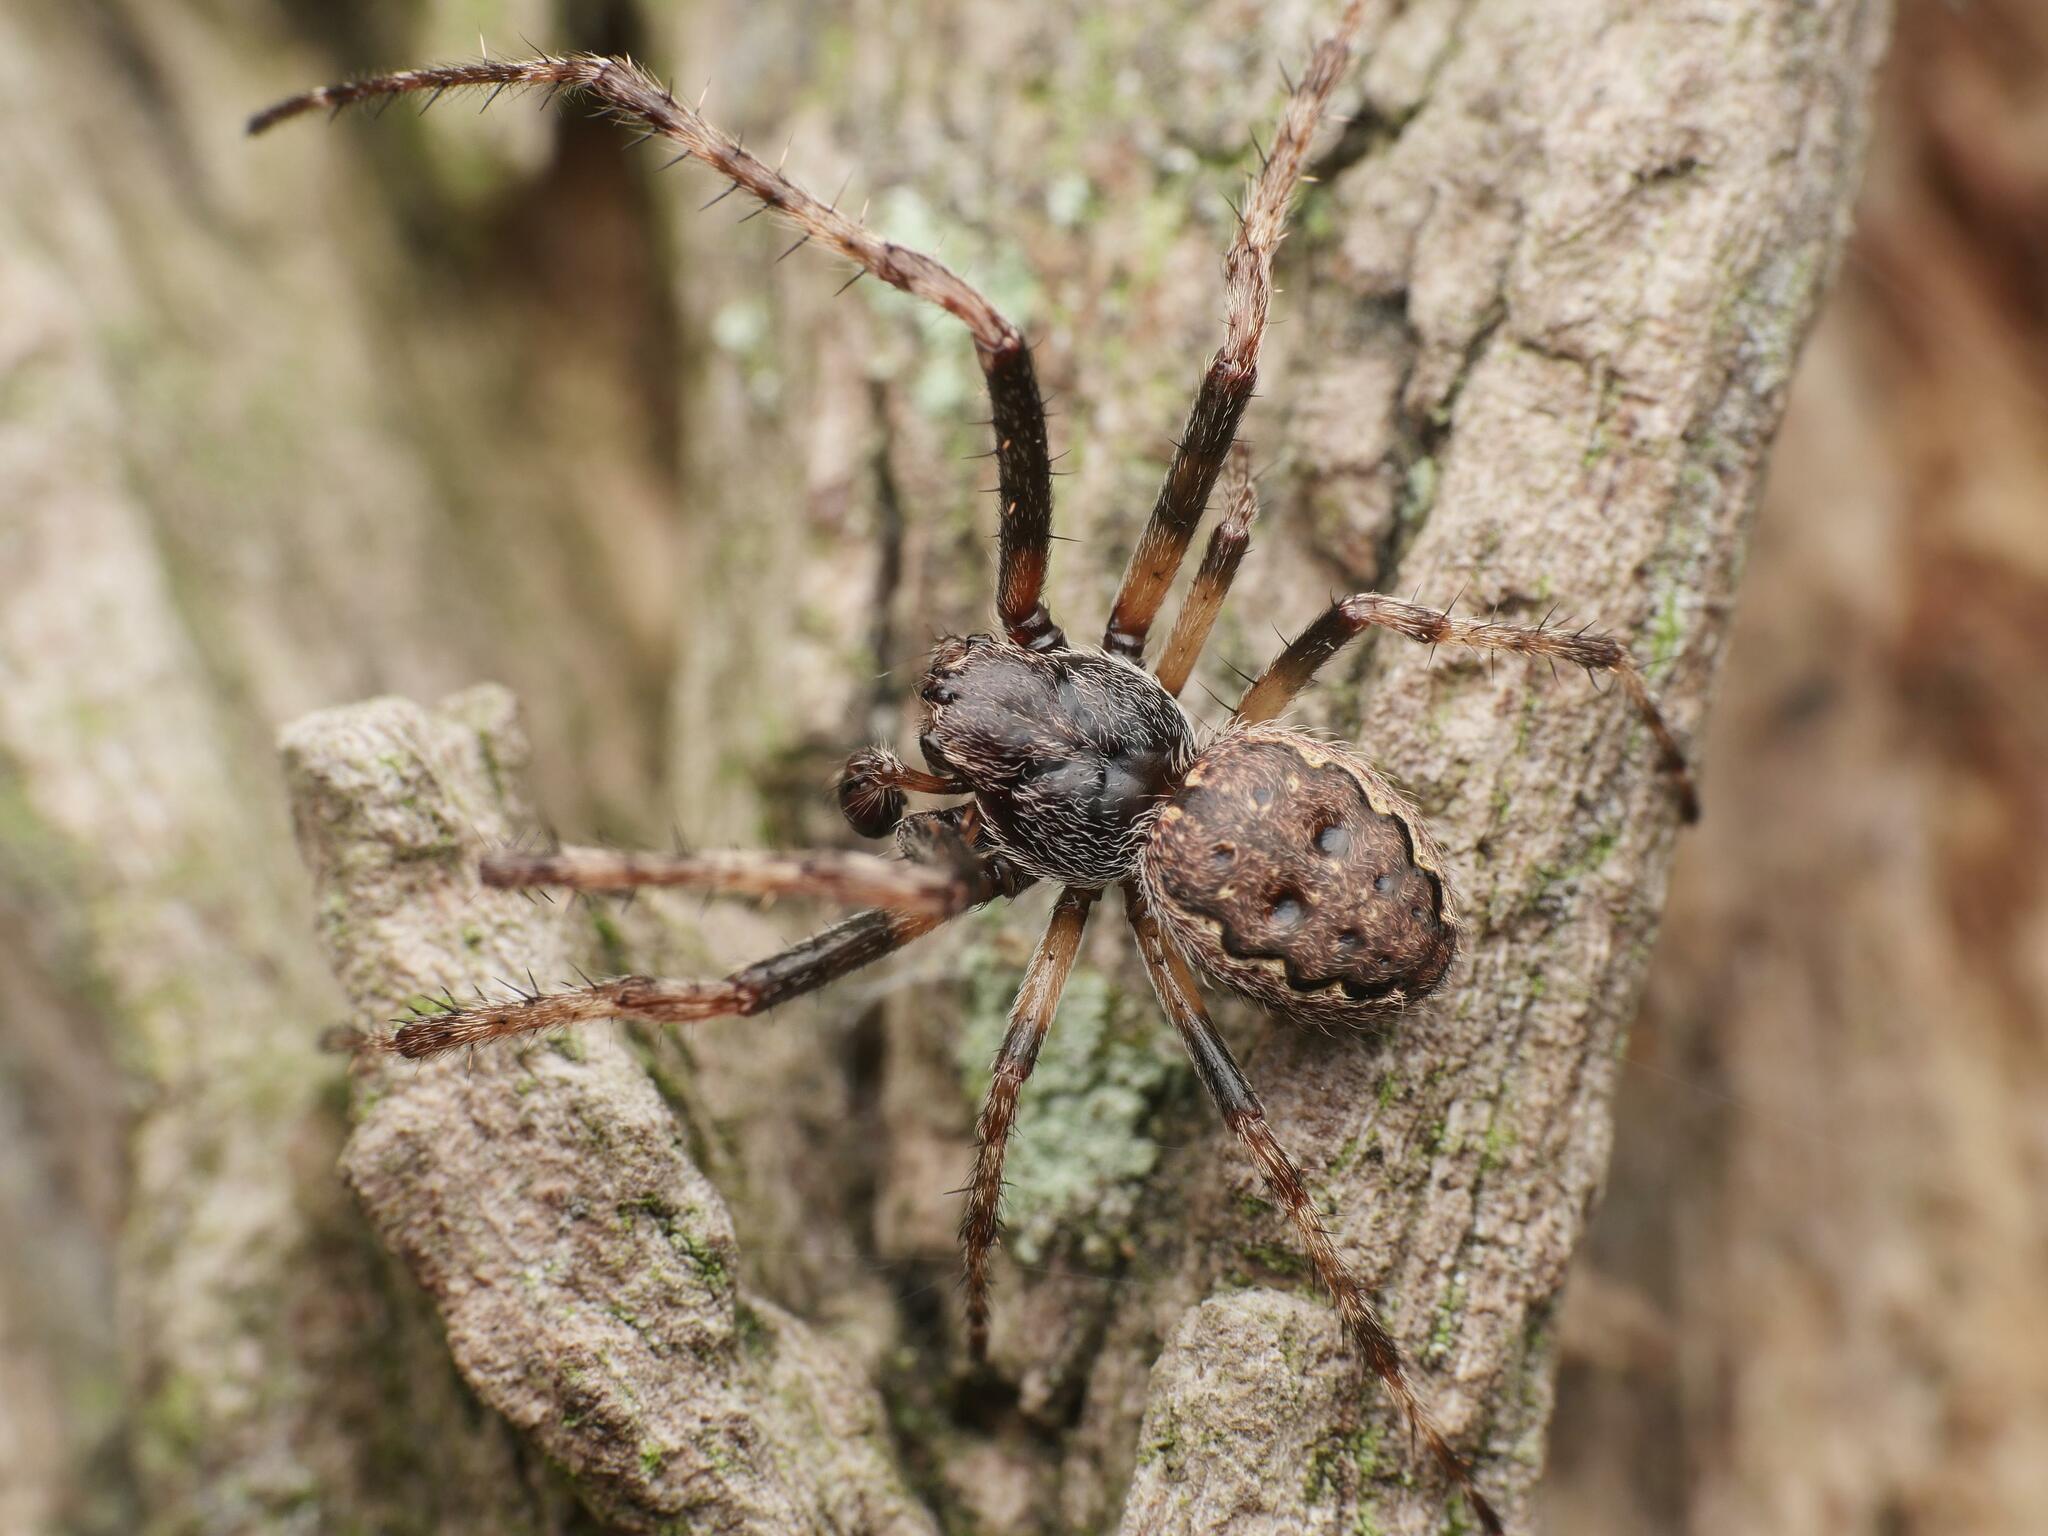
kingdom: Animalia
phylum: Arthropoda
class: Arachnida
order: Araneae
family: Araneidae
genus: Nuctenea
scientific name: Nuctenea umbratica
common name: Toad spider
